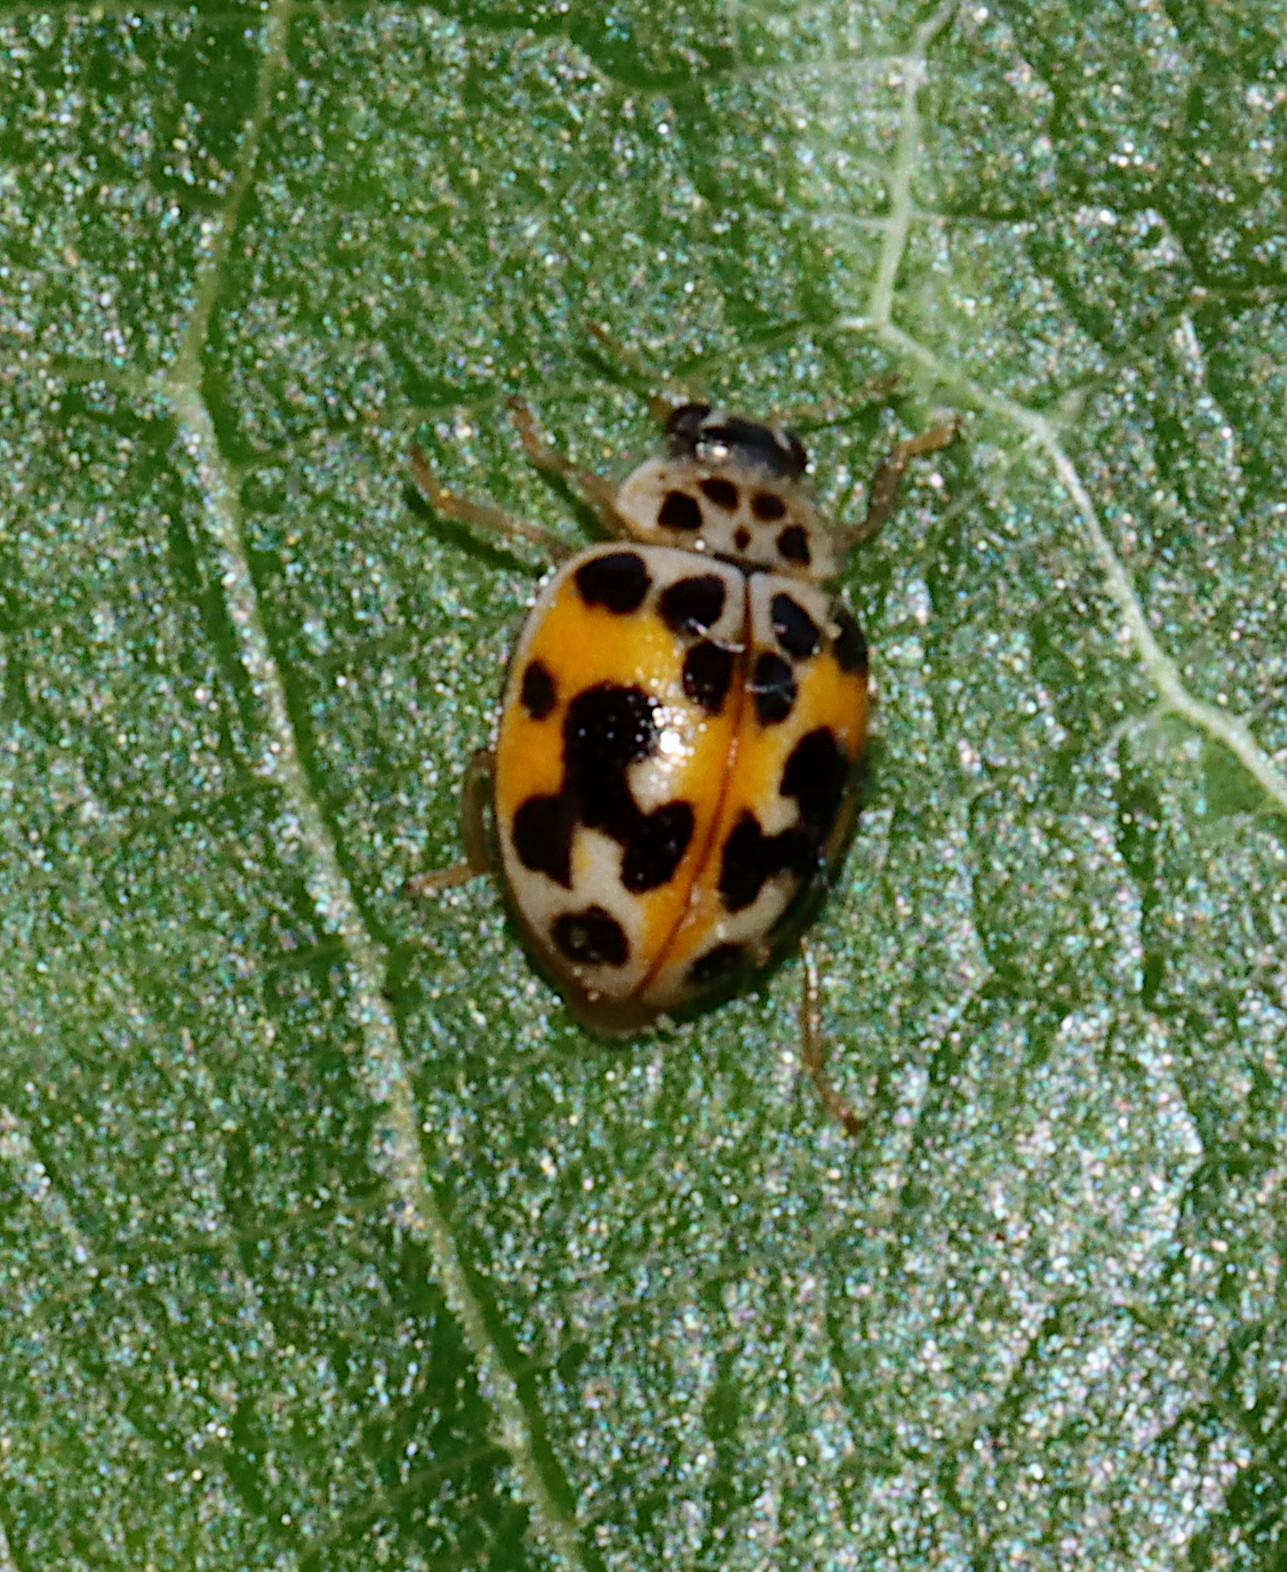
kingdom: Animalia
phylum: Arthropoda
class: Insecta
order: Coleoptera
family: Coccinellidae
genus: Psyllobora
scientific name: Psyllobora vigintimaculata
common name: Ladybird beetle
